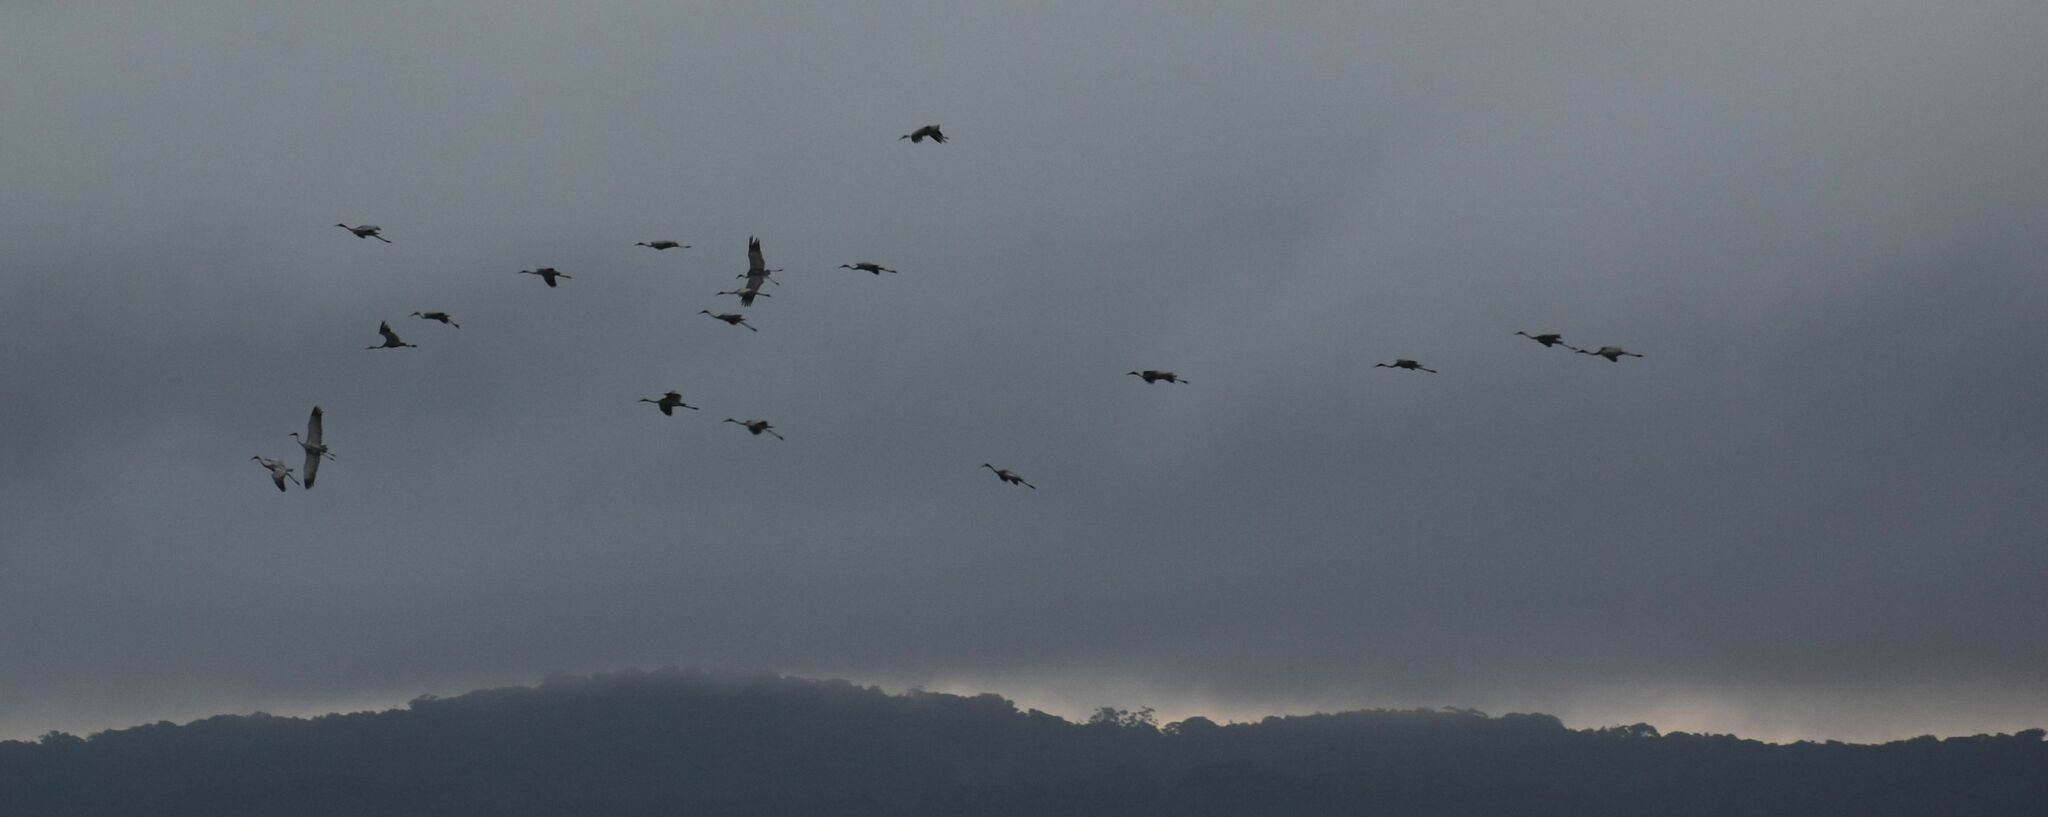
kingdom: Animalia
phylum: Chordata
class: Aves
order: Gruiformes
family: Gruidae
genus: Grus
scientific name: Grus rubicunda
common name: Brolga
